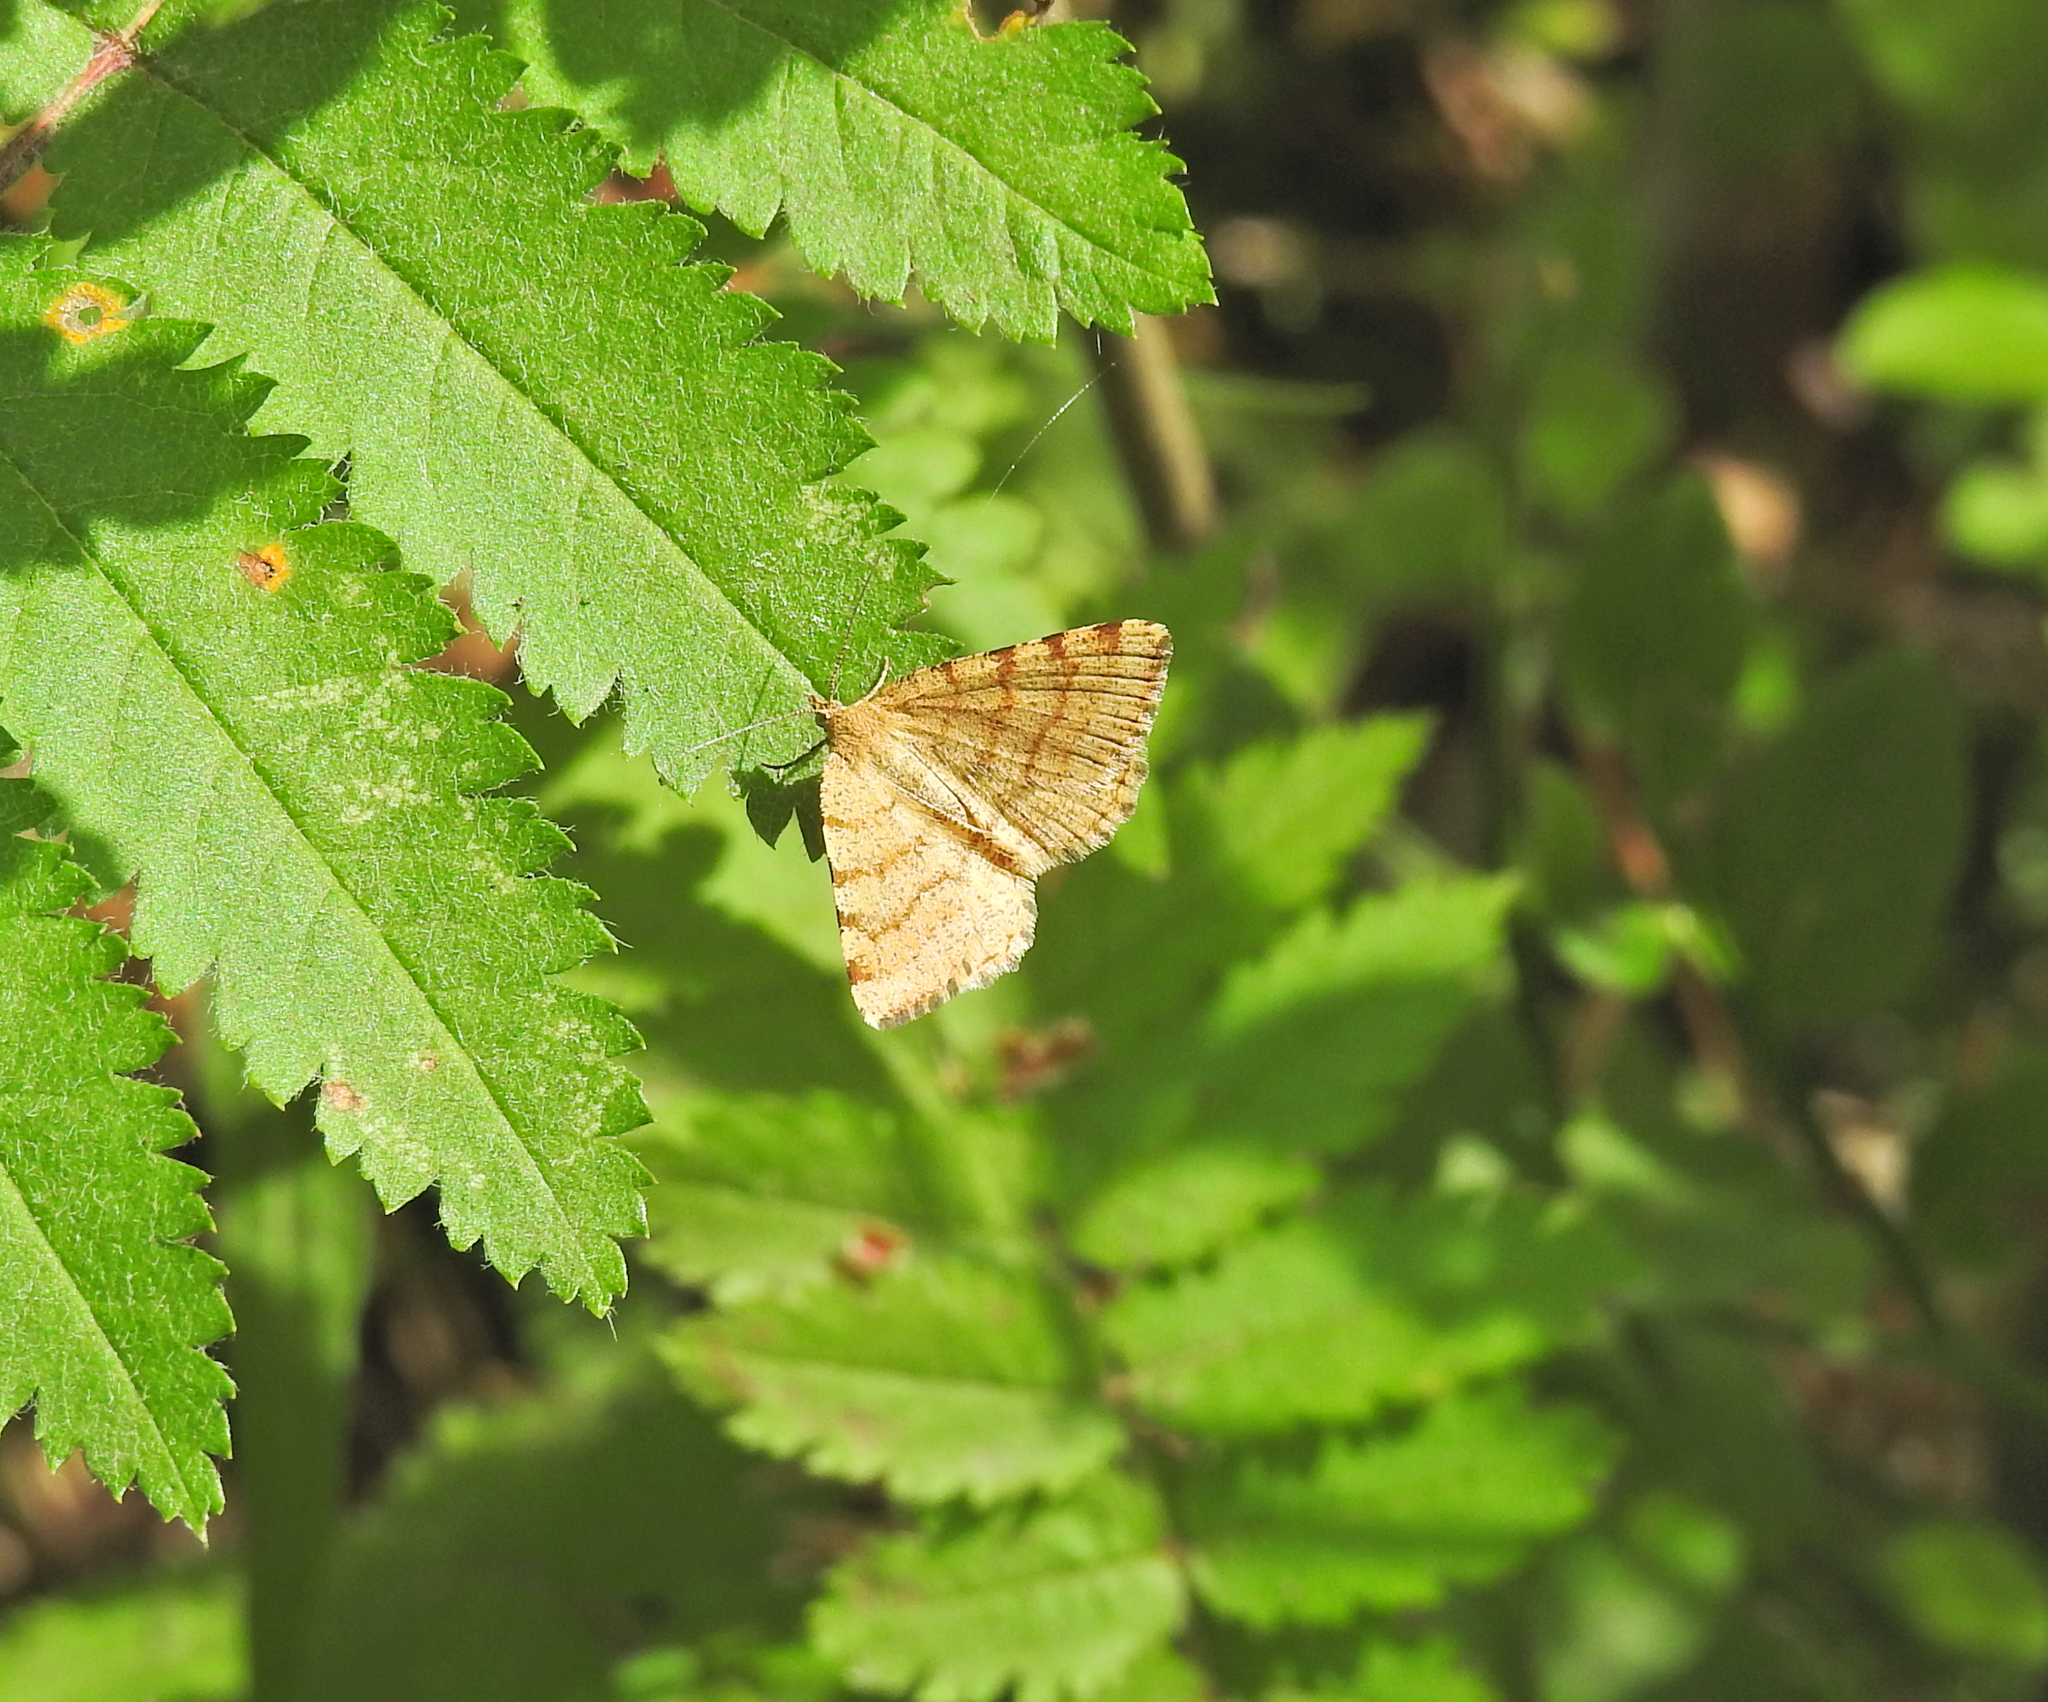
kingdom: Animalia
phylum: Arthropoda
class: Insecta
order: Lepidoptera
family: Geometridae
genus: Macaria
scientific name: Macaria brunneata
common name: Rannoch looper
